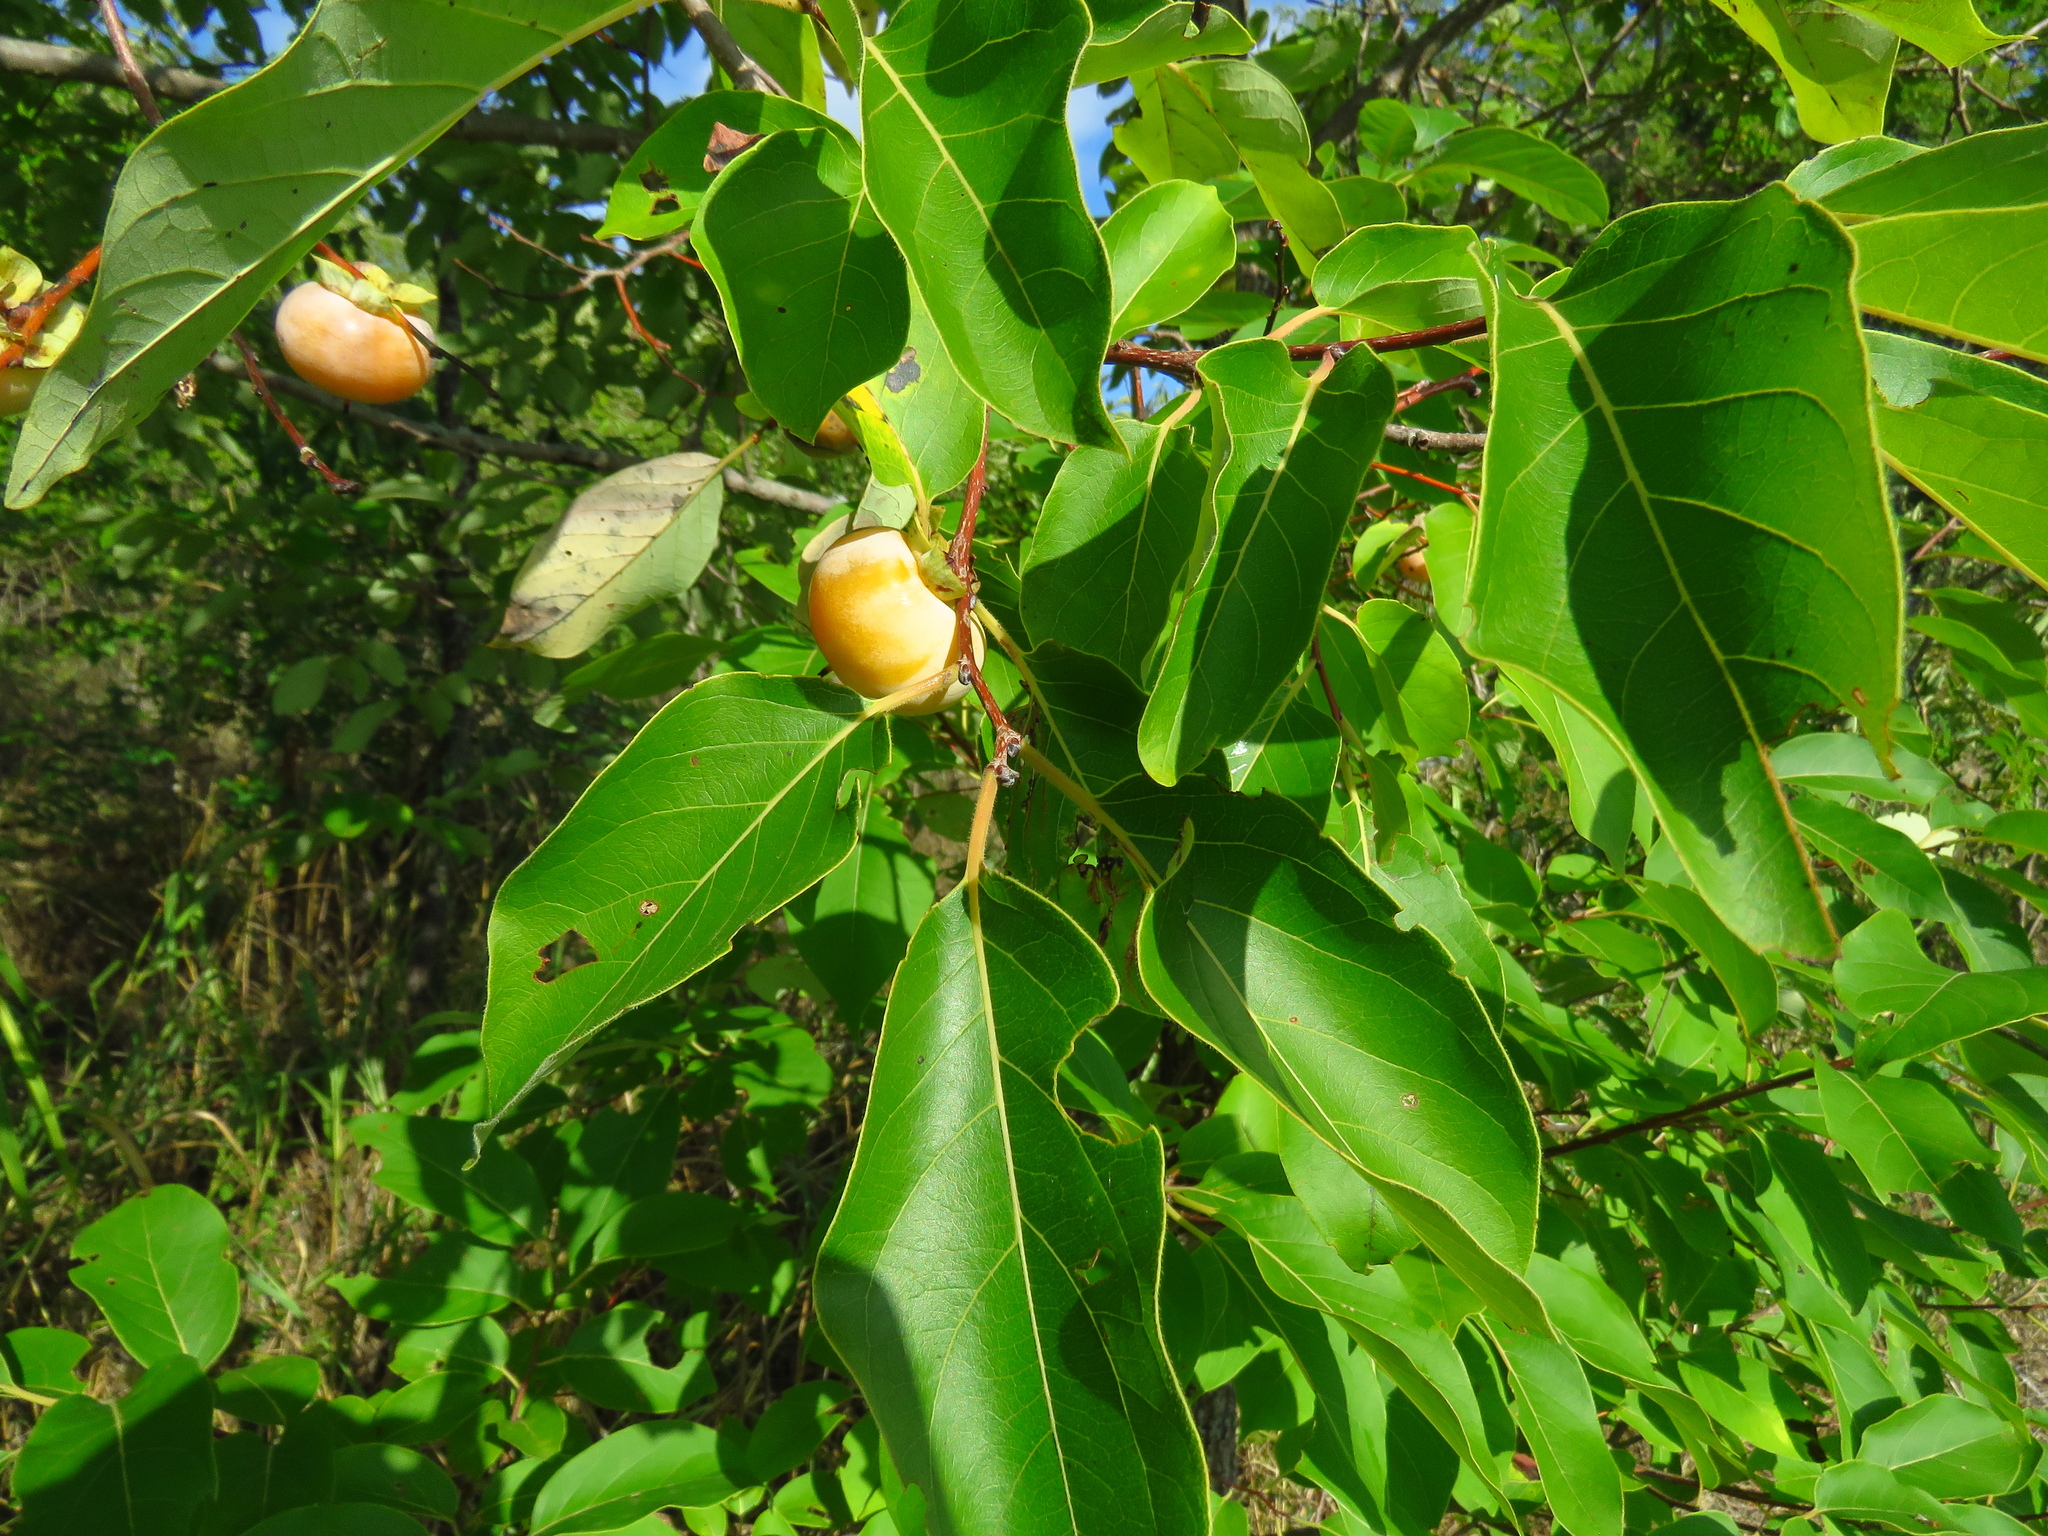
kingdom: Plantae
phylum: Tracheophyta
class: Magnoliopsida
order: Ericales
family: Ebenaceae
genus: Diospyros
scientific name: Diospyros virginiana
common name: Persimmon
